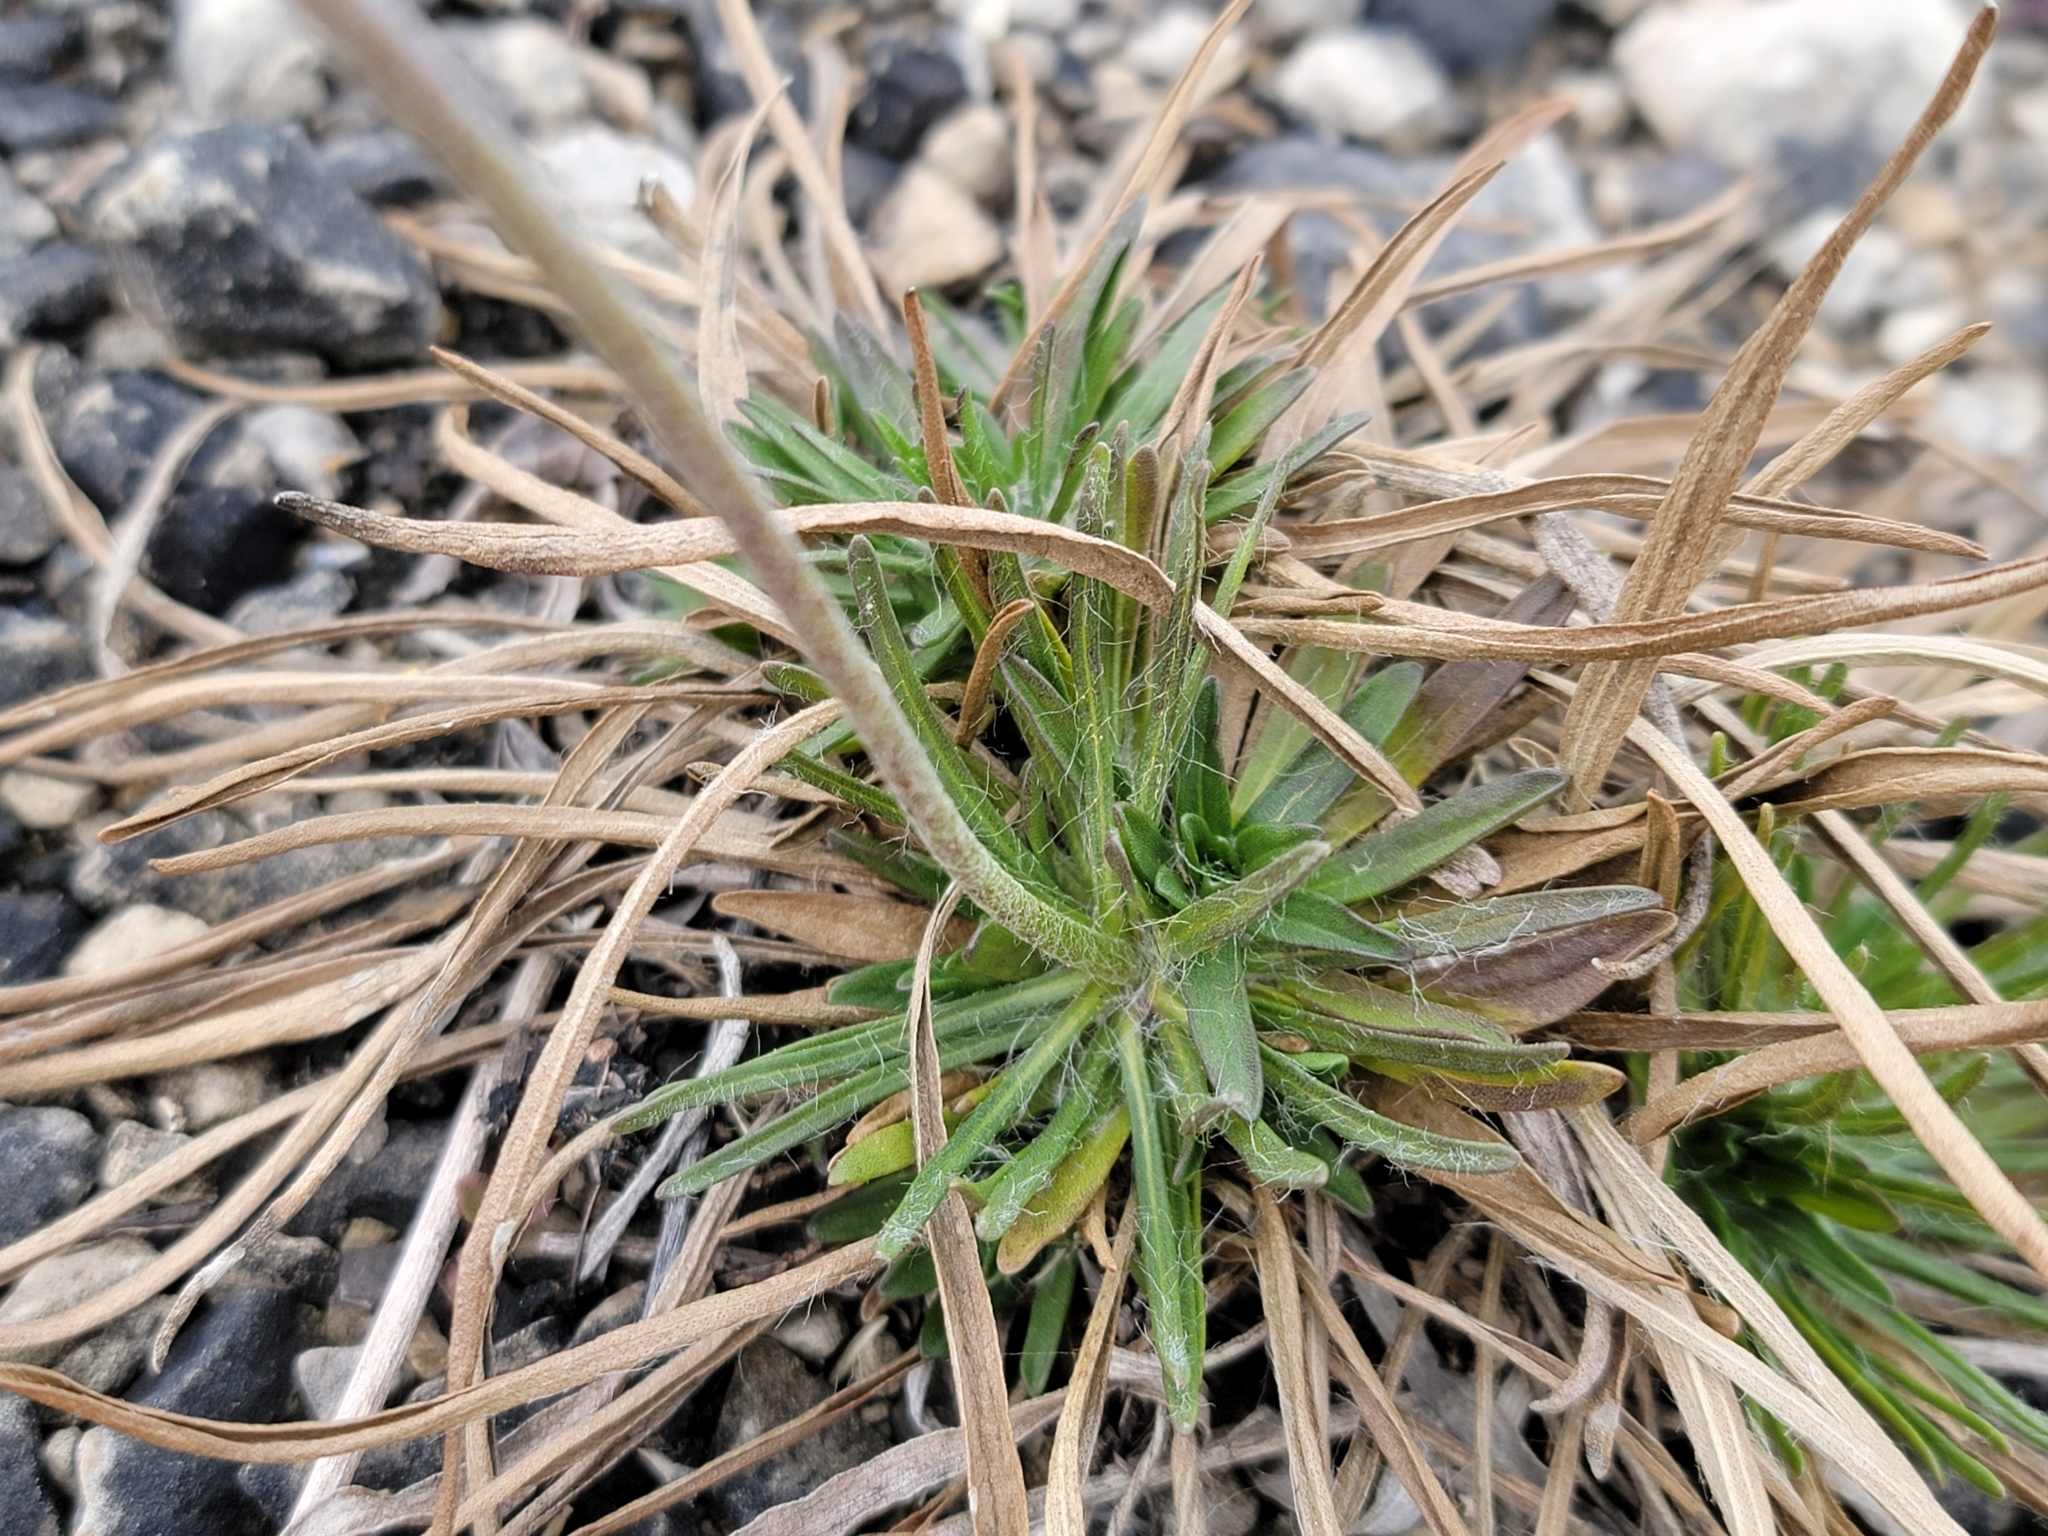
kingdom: Plantae
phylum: Tracheophyta
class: Magnoliopsida
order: Asterales
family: Asteraceae
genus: Tetraneuris
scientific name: Tetraneuris herbacea
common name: Lakeside daisy
